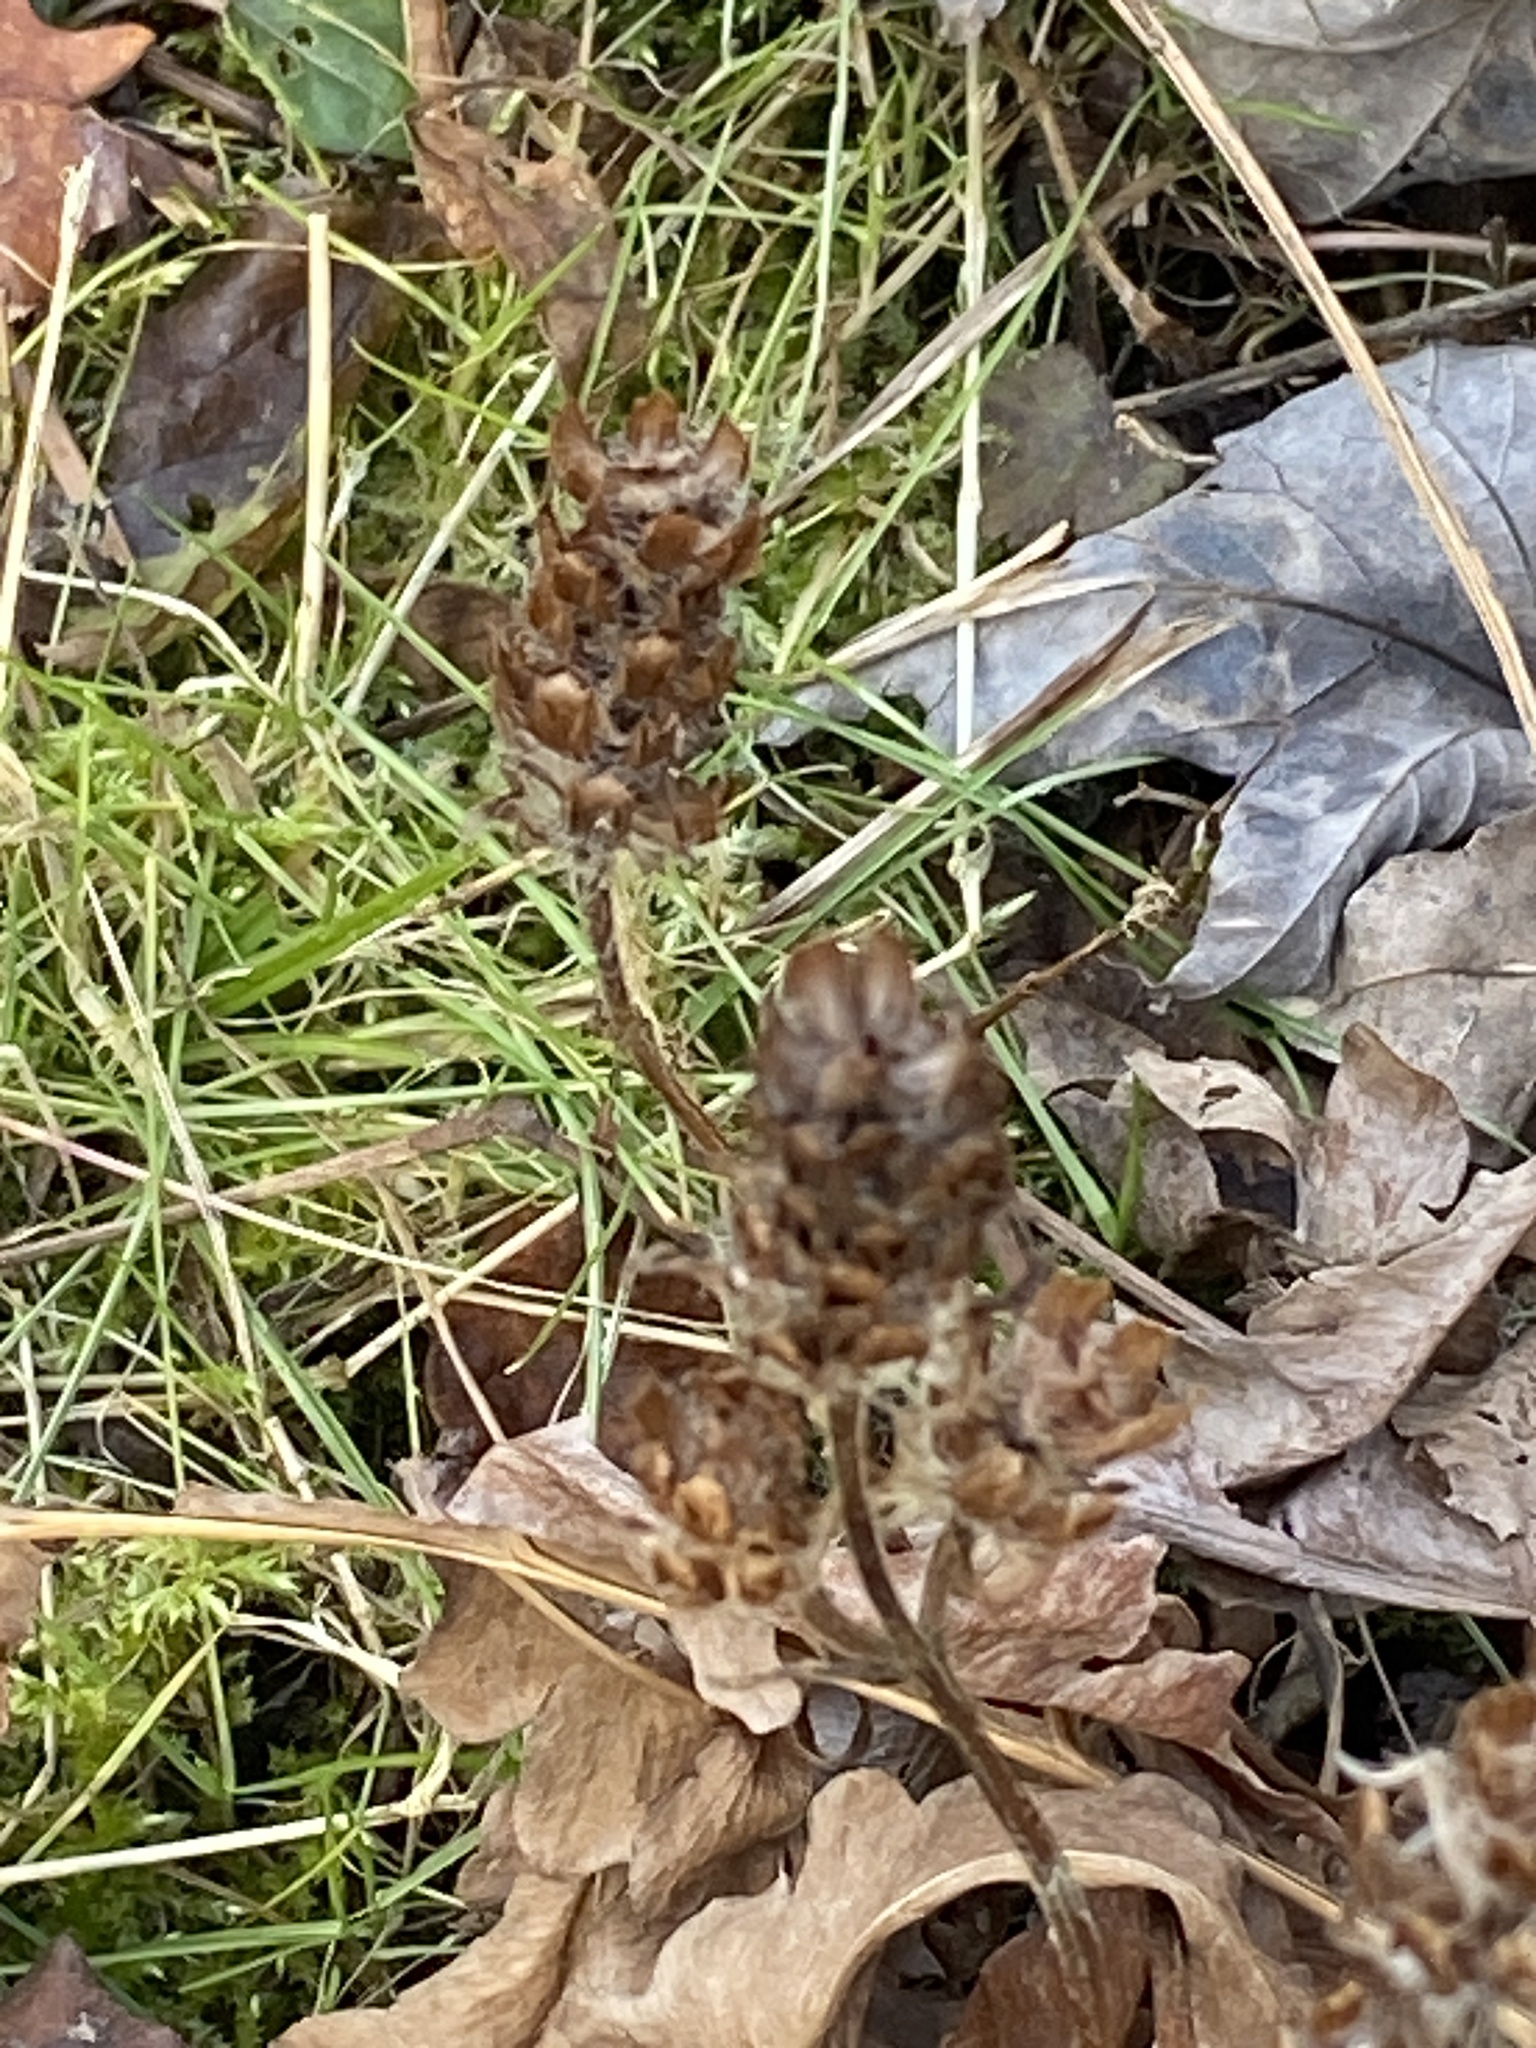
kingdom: Plantae
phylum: Tracheophyta
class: Magnoliopsida
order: Lamiales
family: Lamiaceae
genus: Prunella
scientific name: Prunella vulgaris
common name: Heal-all
